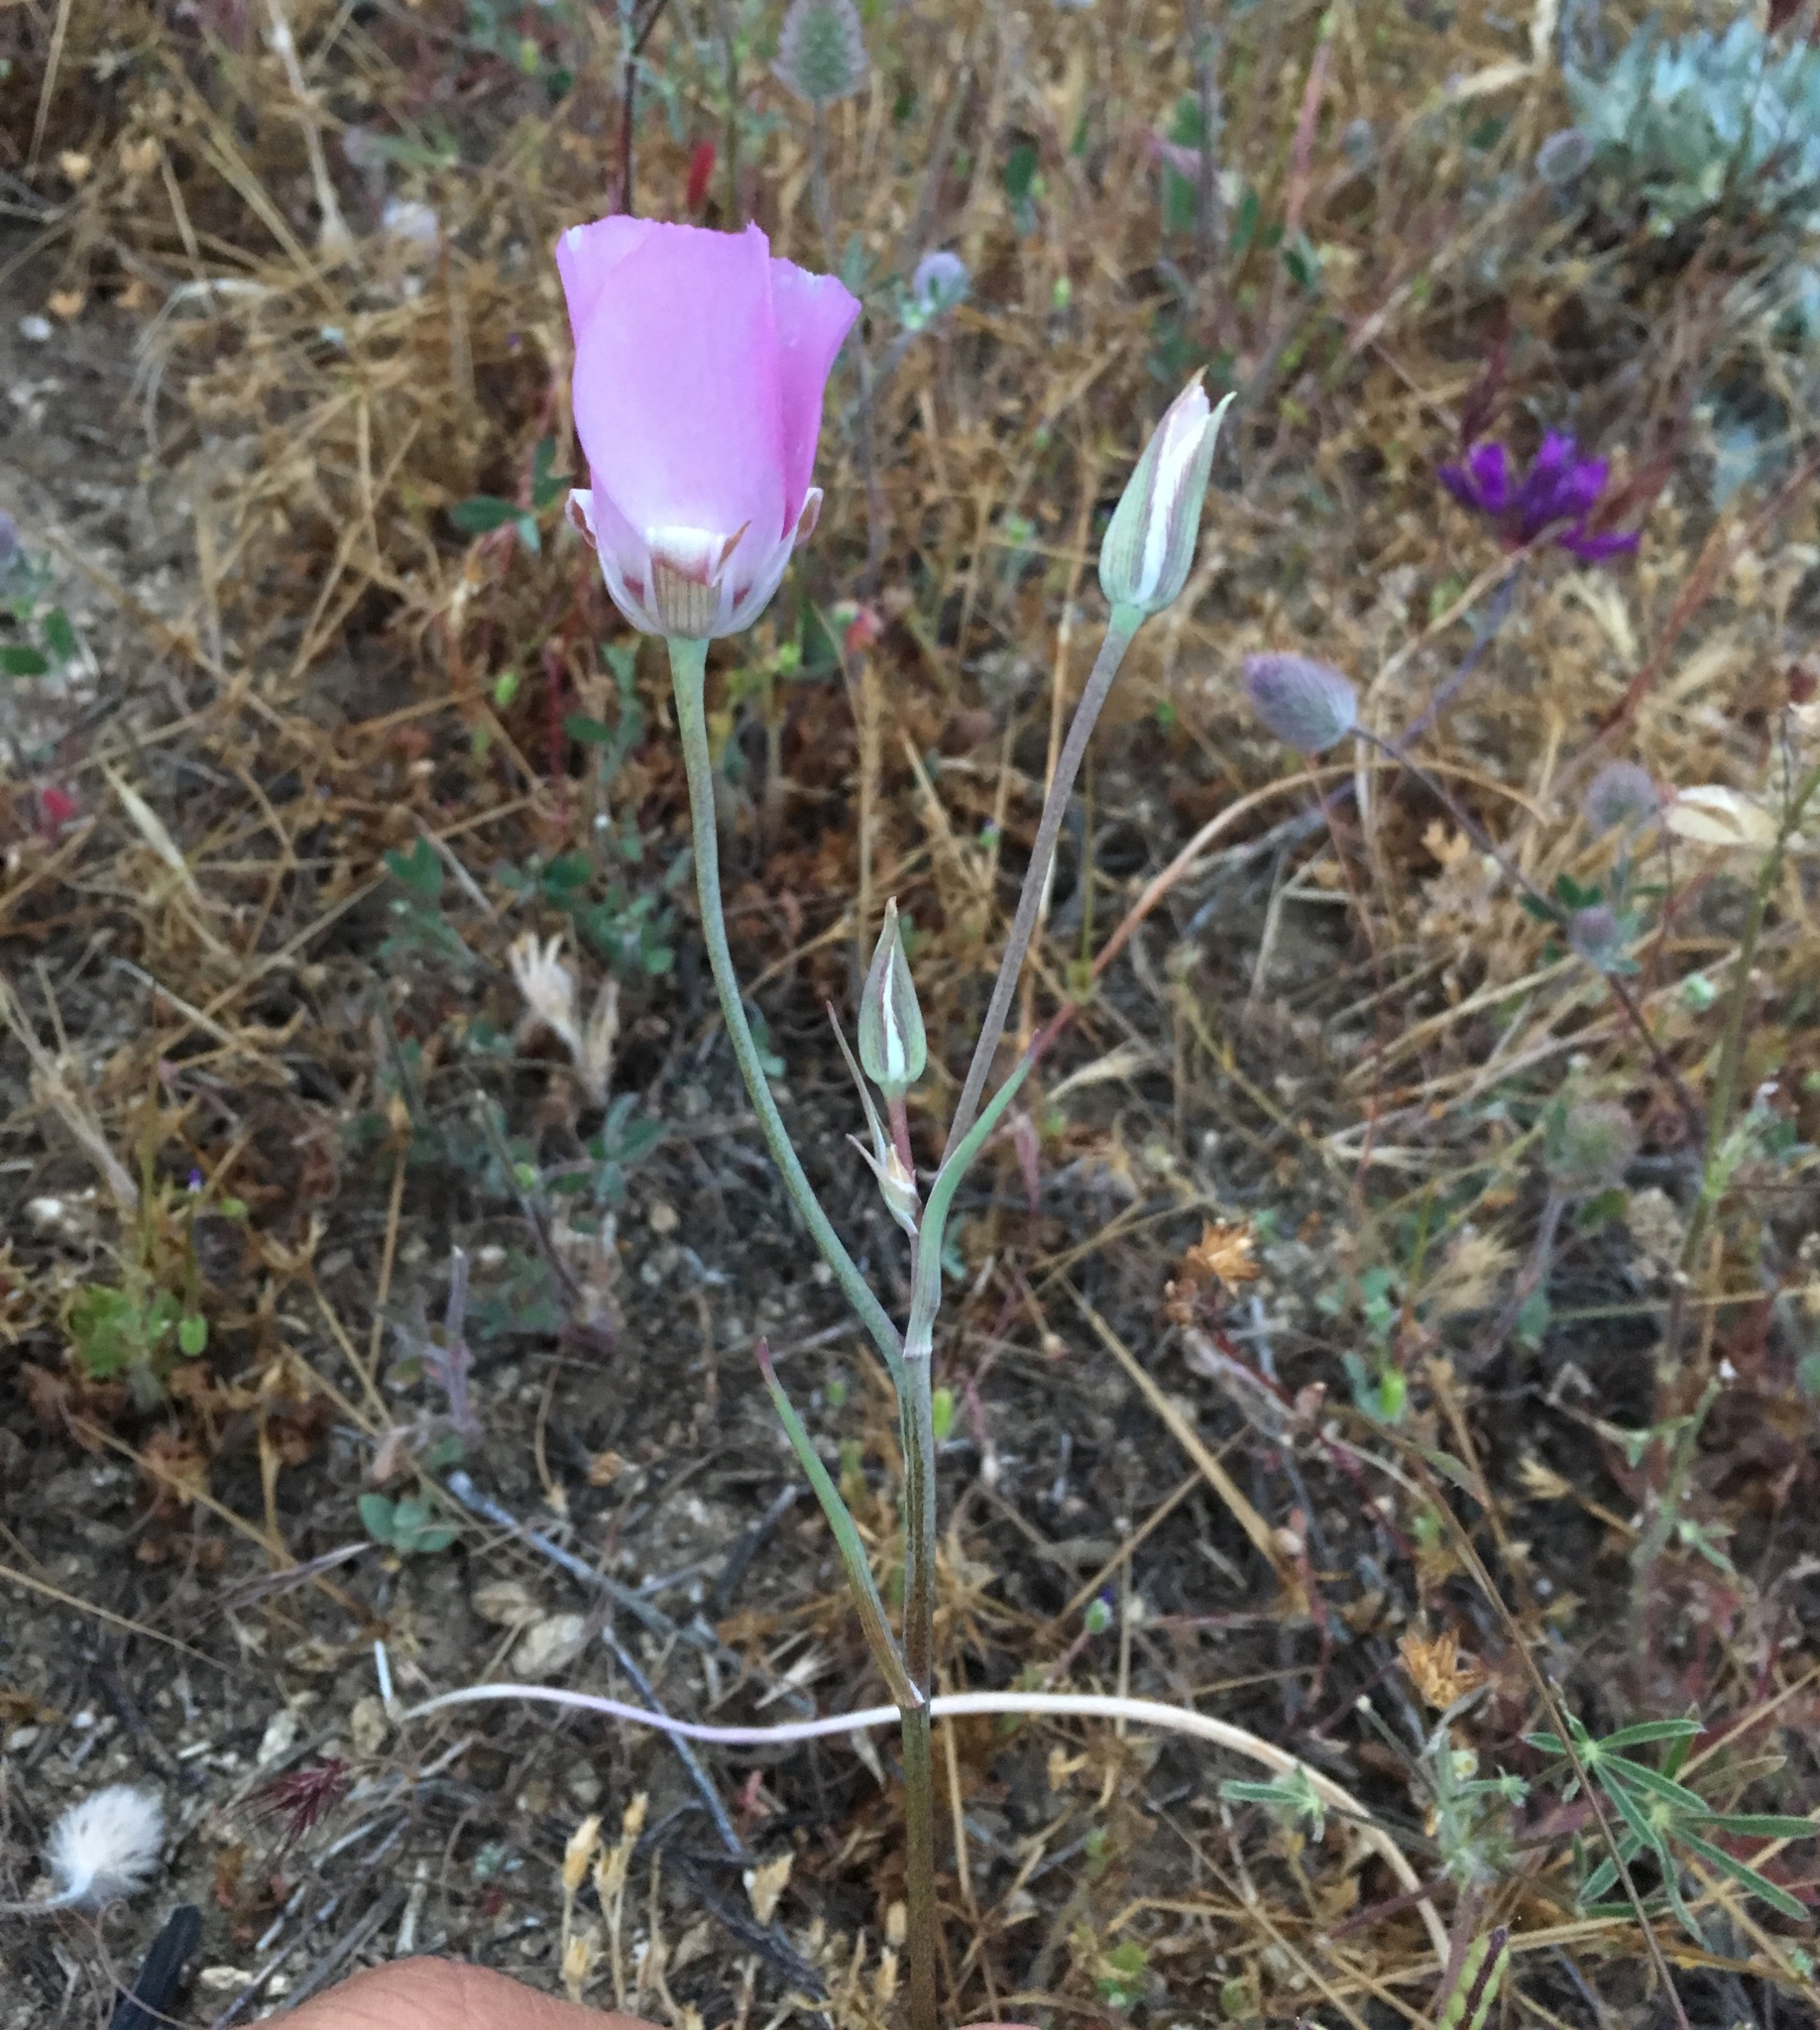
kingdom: Plantae
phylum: Tracheophyta
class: Liliopsida
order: Liliales
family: Liliaceae
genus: Calochortus
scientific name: Calochortus palmeri
